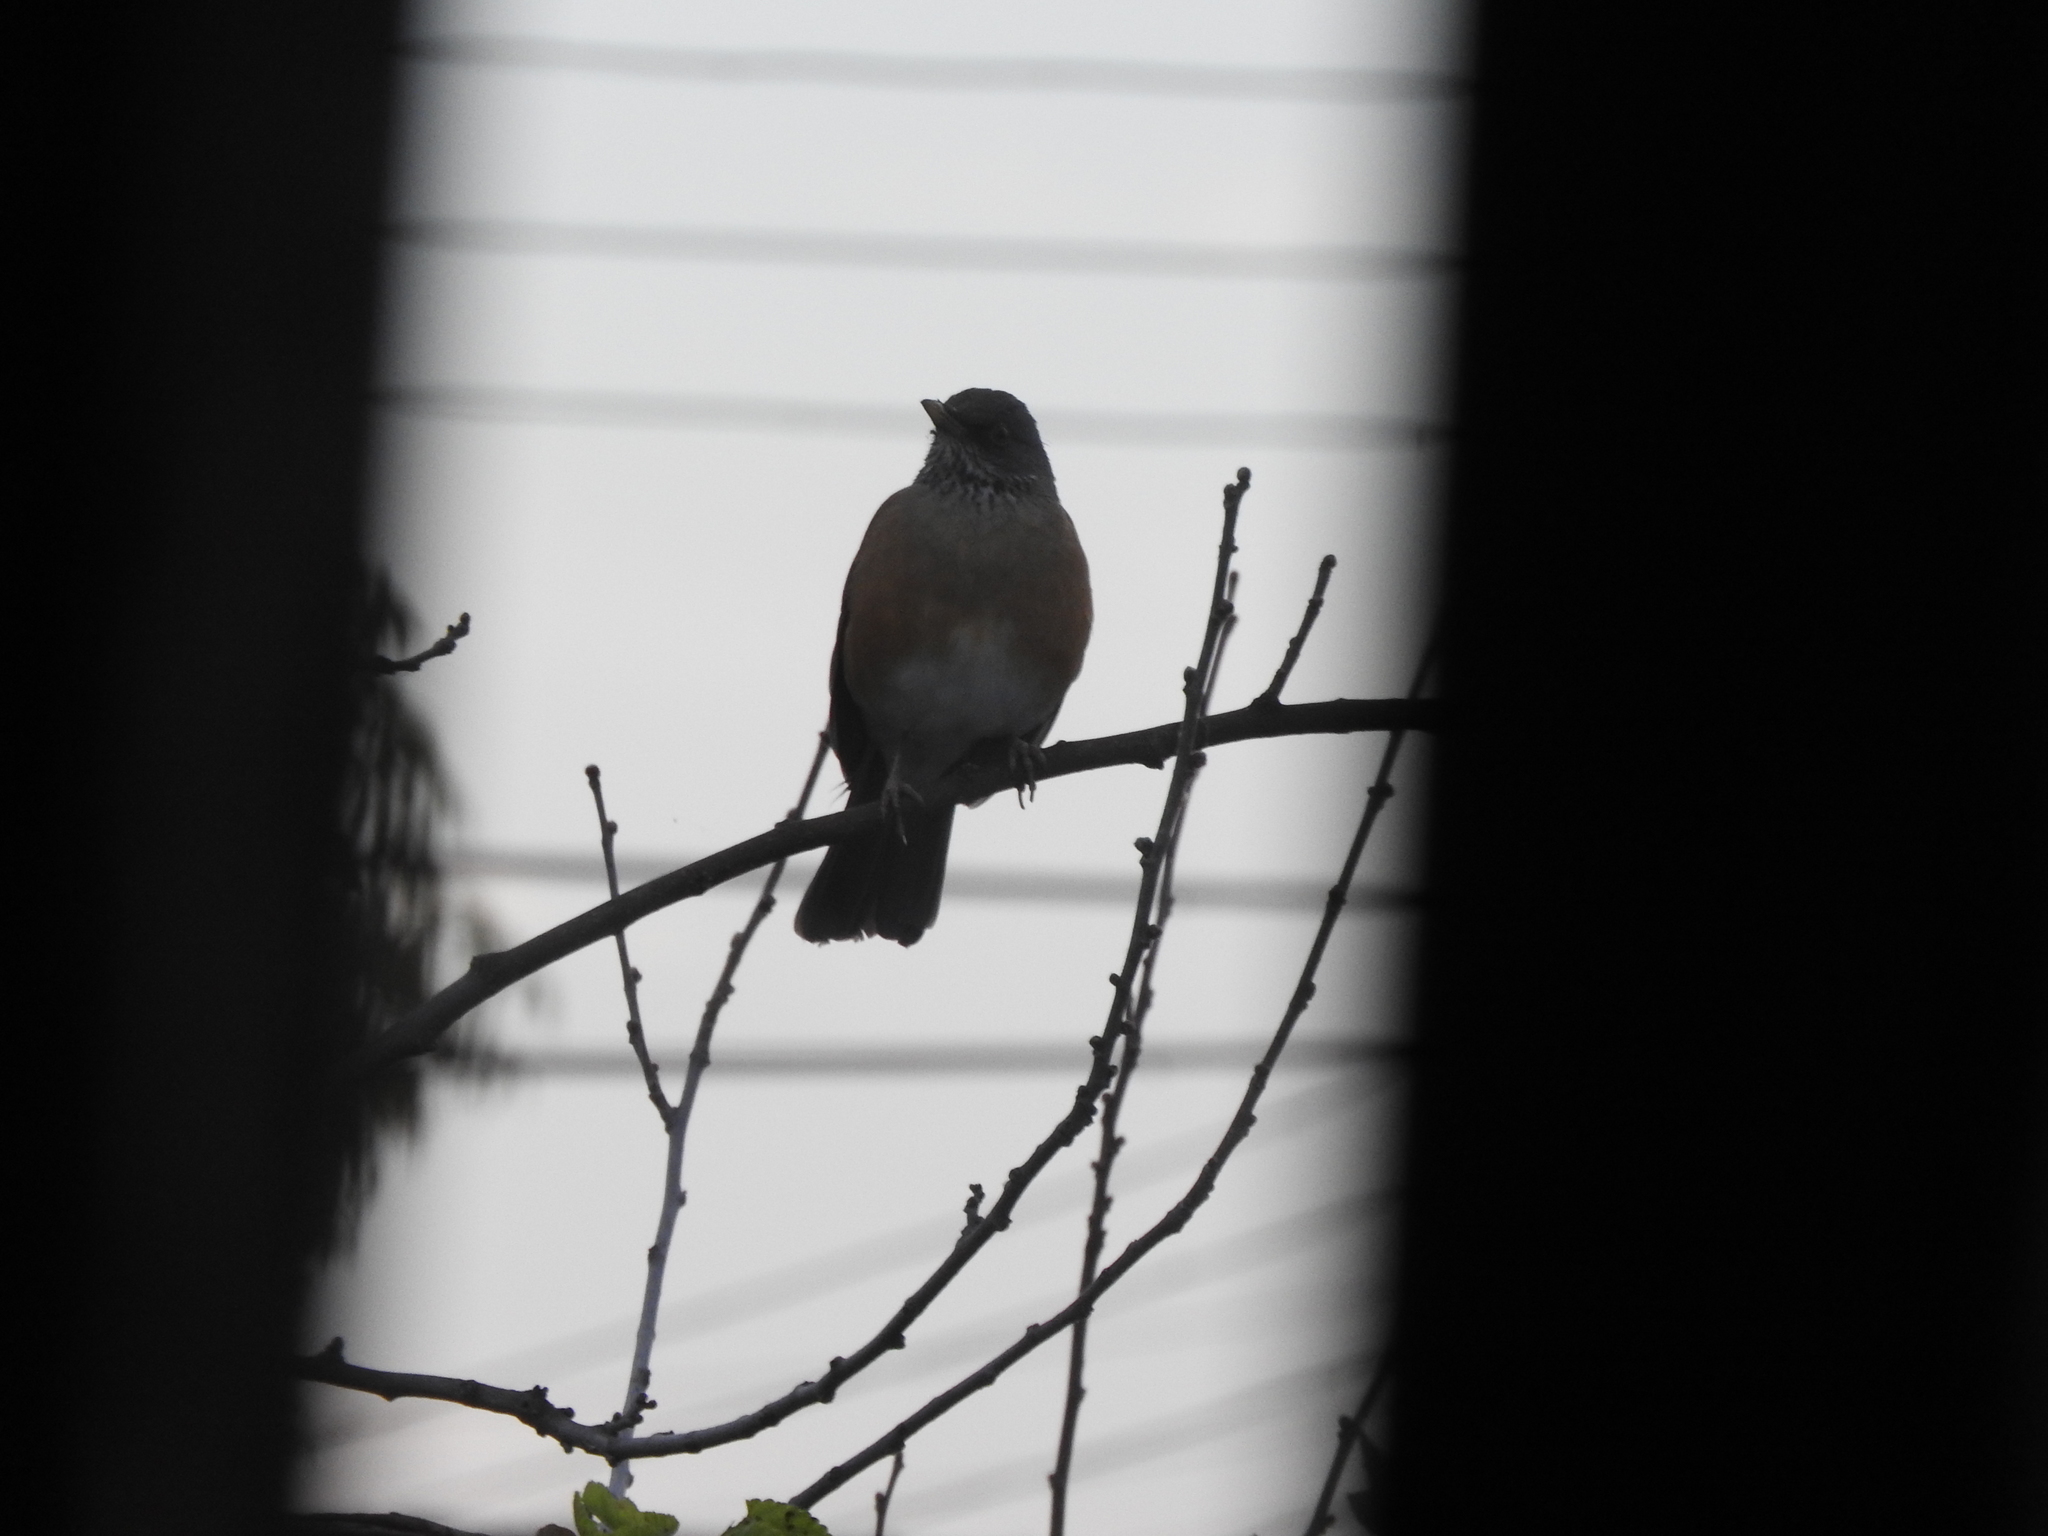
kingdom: Animalia
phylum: Chordata
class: Aves
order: Passeriformes
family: Turdidae
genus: Turdus
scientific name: Turdus rufopalliatus
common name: Rufous-backed robin
